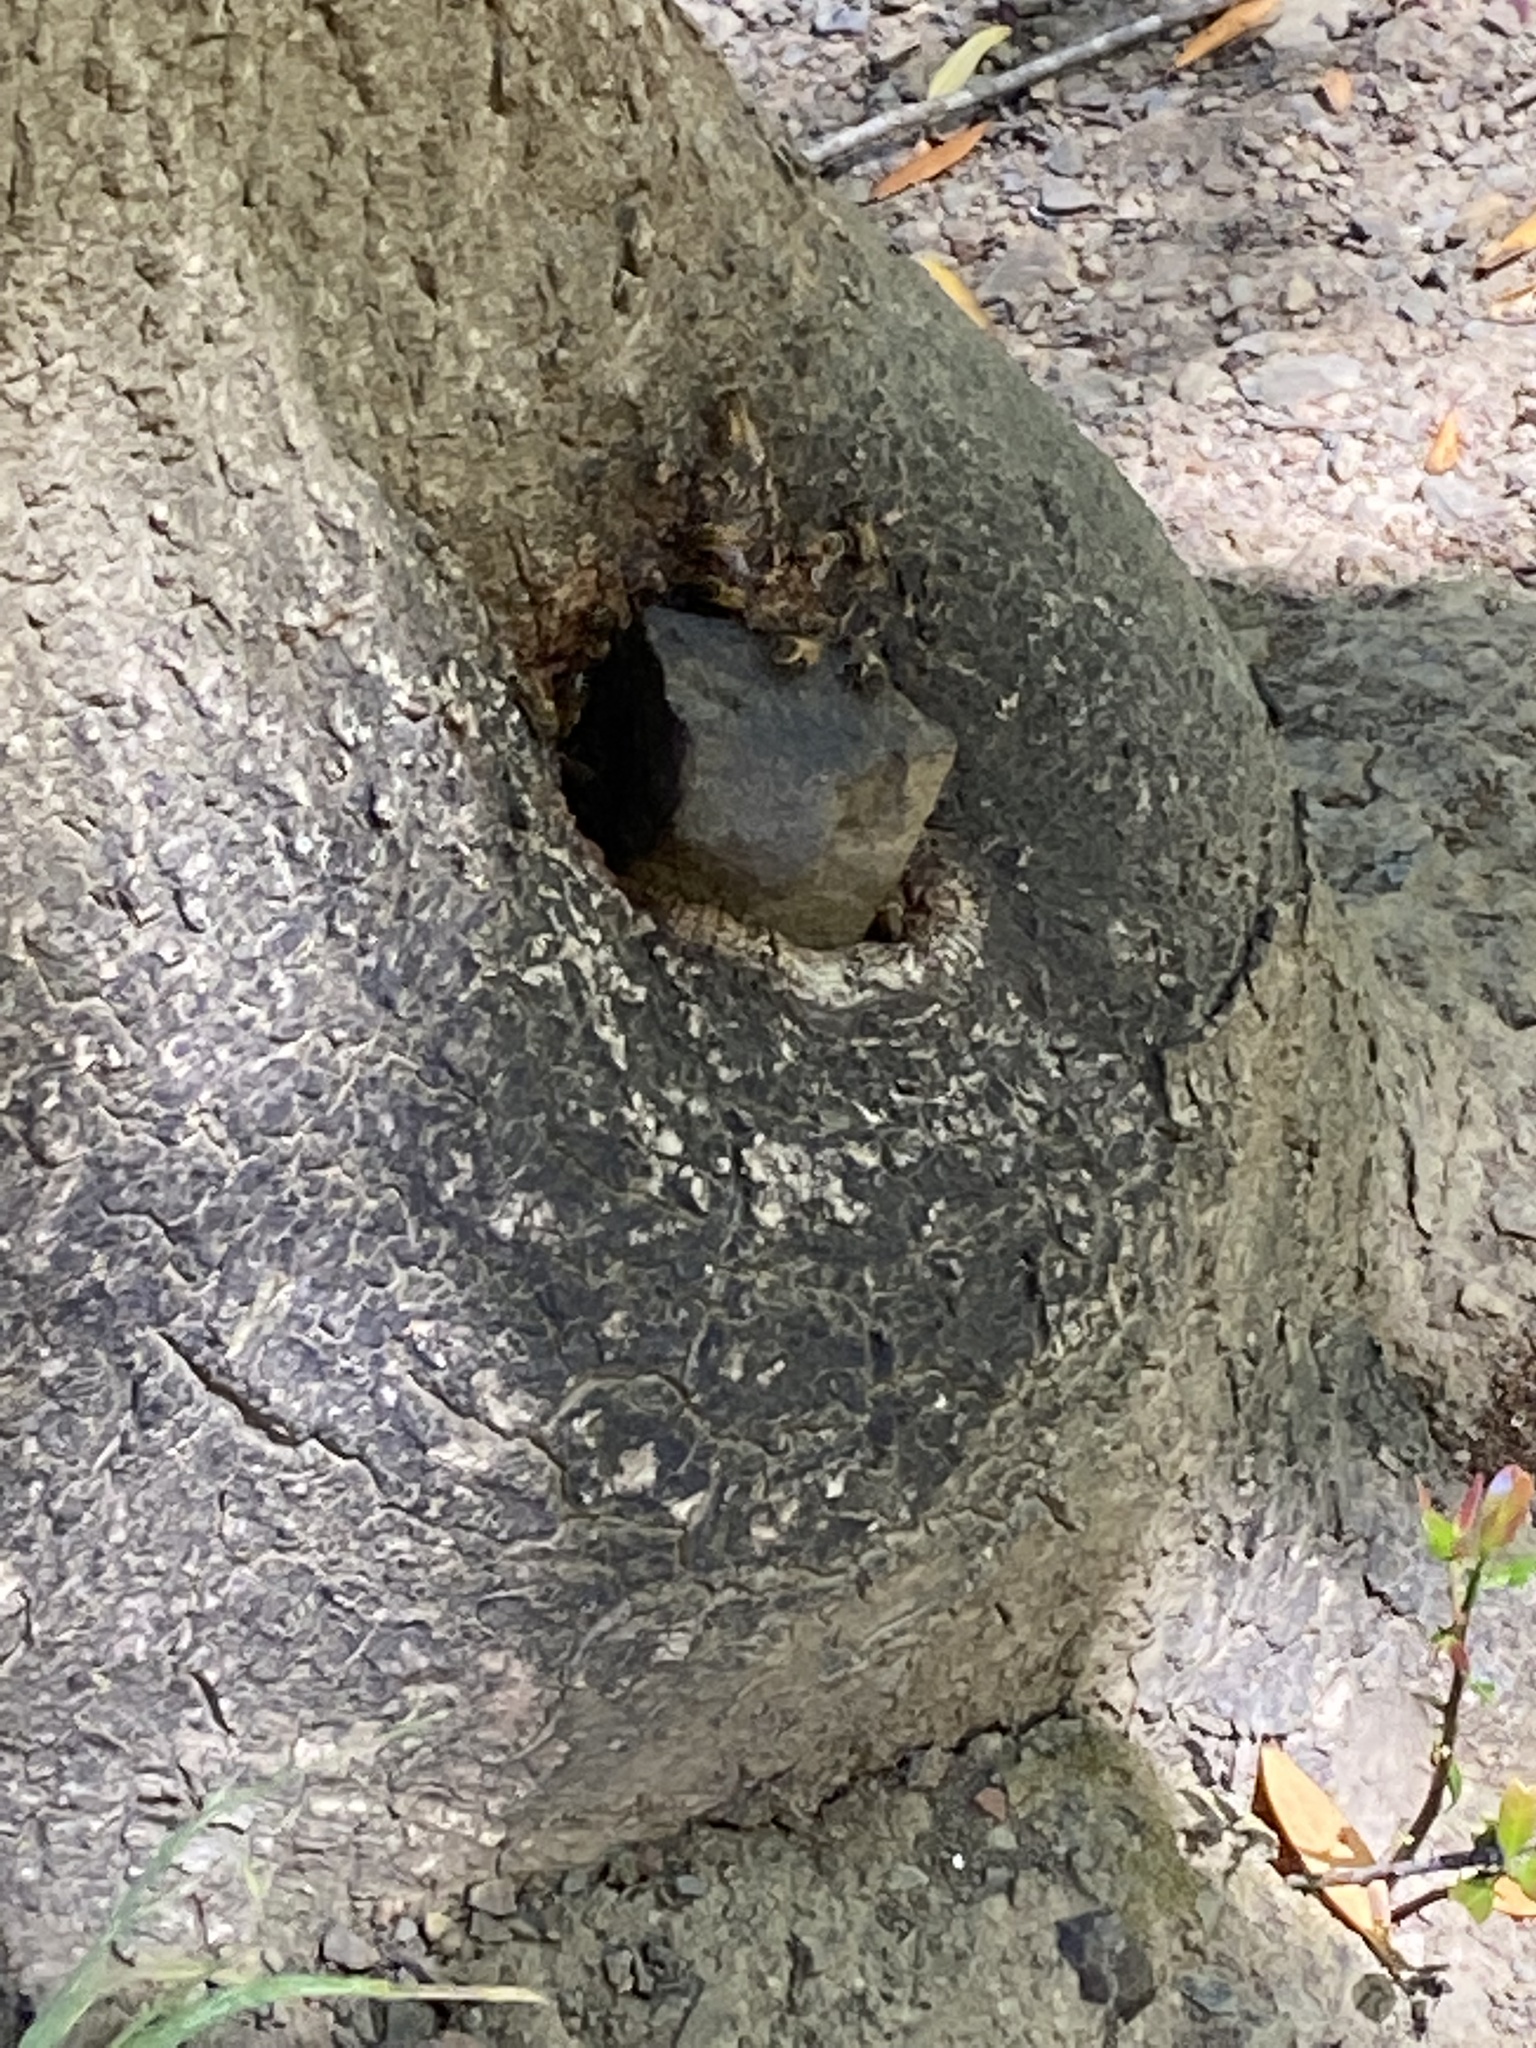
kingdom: Animalia
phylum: Arthropoda
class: Insecta
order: Hymenoptera
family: Apidae
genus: Apis
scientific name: Apis mellifera
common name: Honey bee
